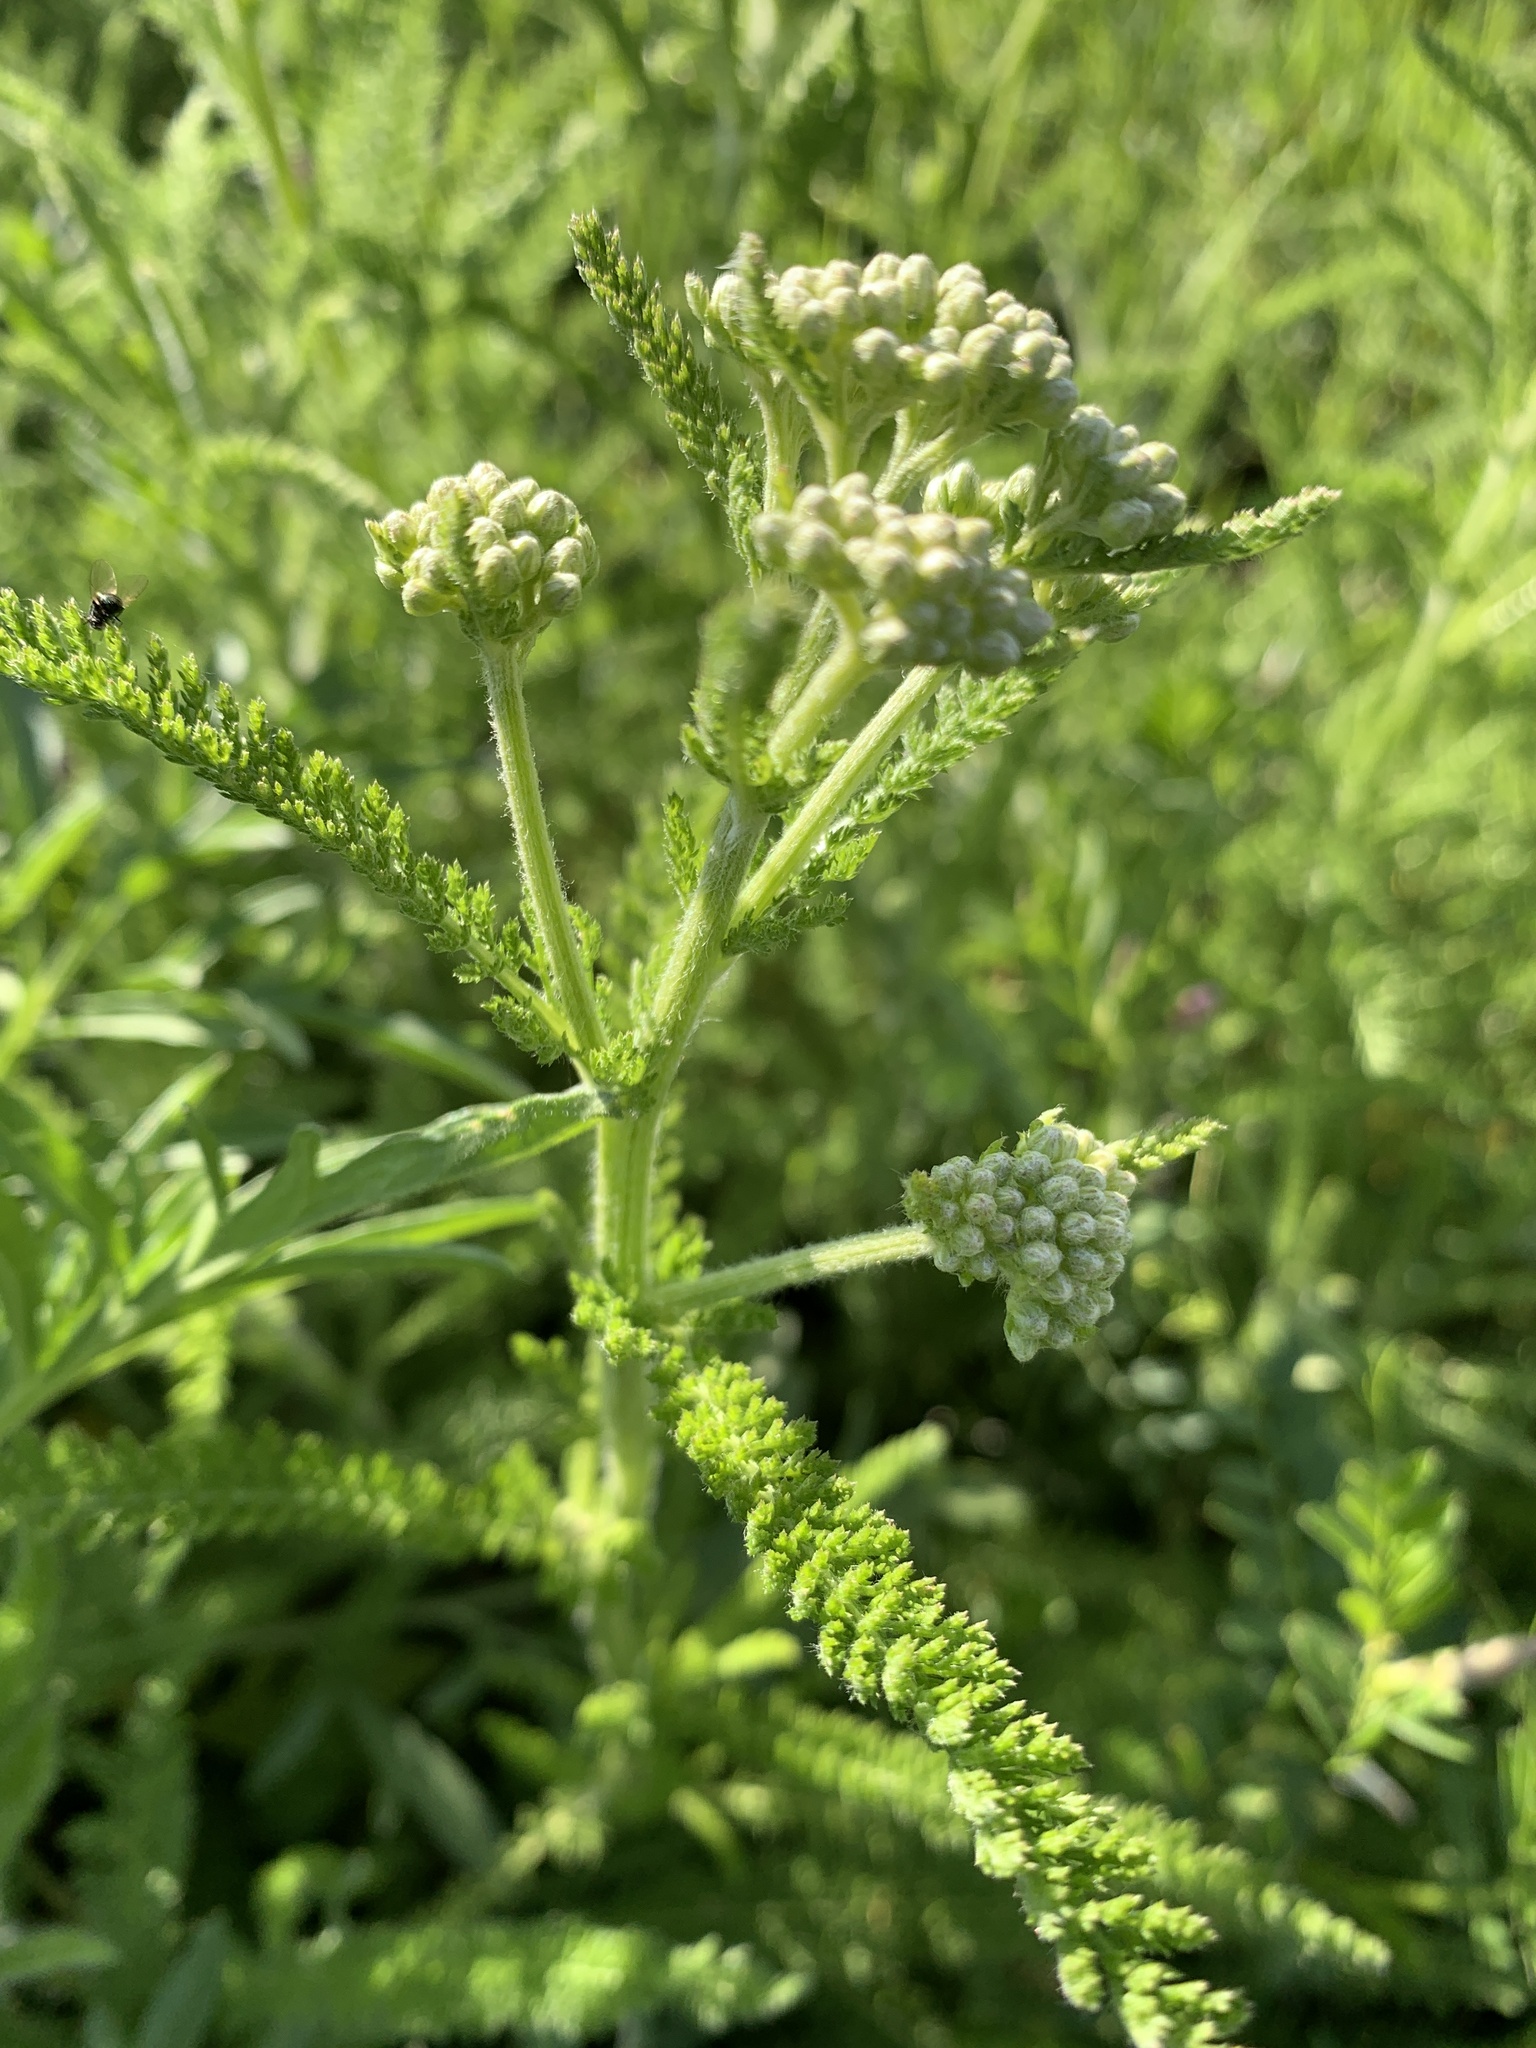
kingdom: Plantae
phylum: Tracheophyta
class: Magnoliopsida
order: Asterales
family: Asteraceae
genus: Achillea
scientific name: Achillea millefolium
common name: Yarrow
